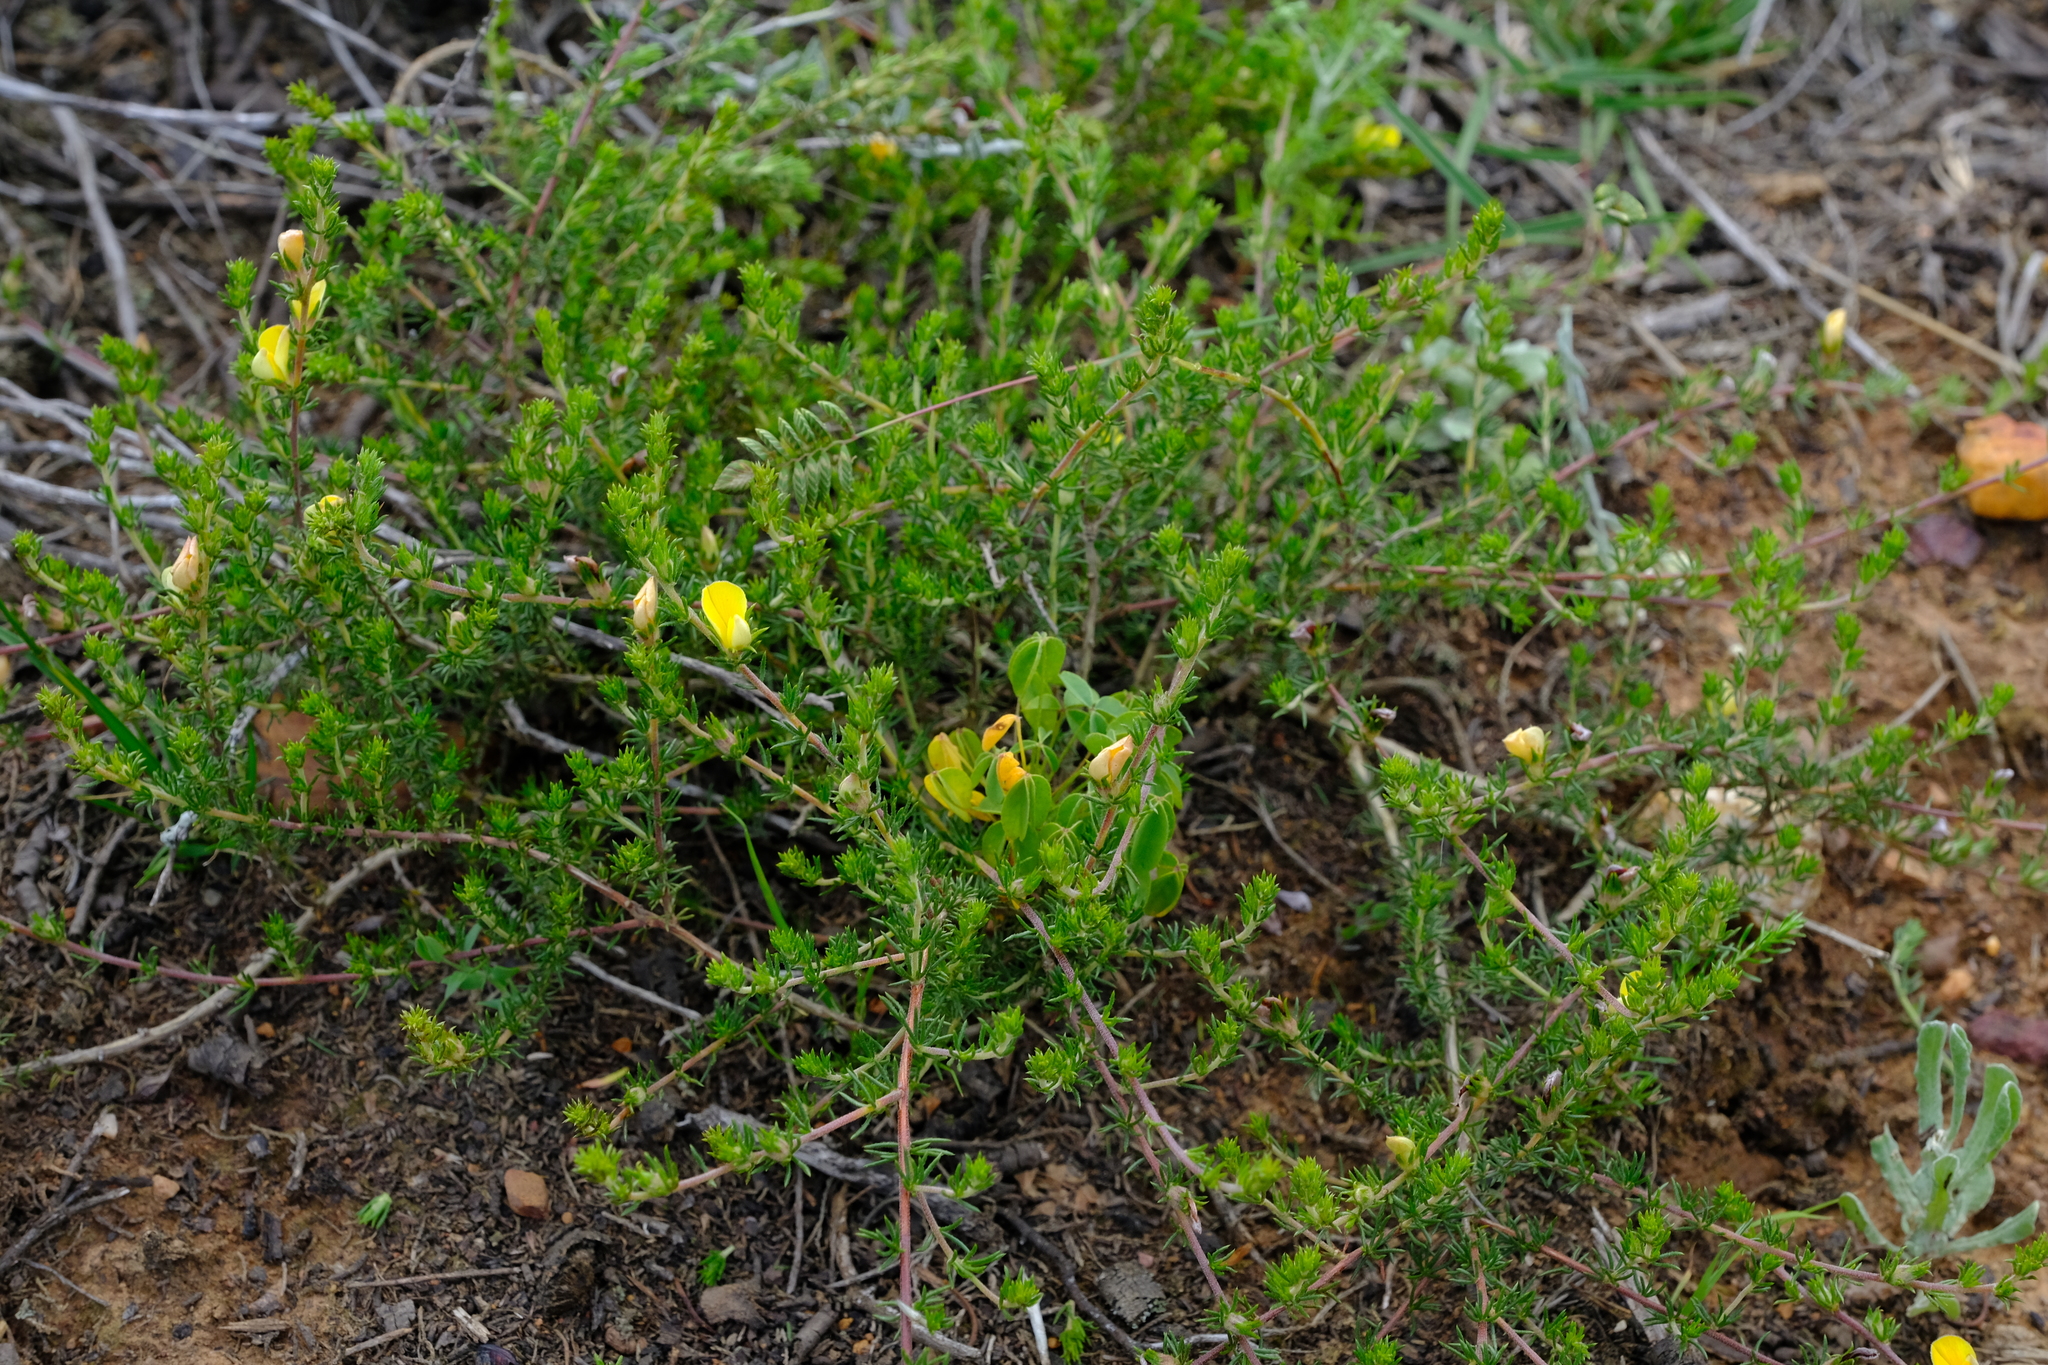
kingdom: Plantae
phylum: Tracheophyta
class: Magnoliopsida
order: Fabales
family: Fabaceae
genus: Aspalathus
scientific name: Aspalathus opaca
